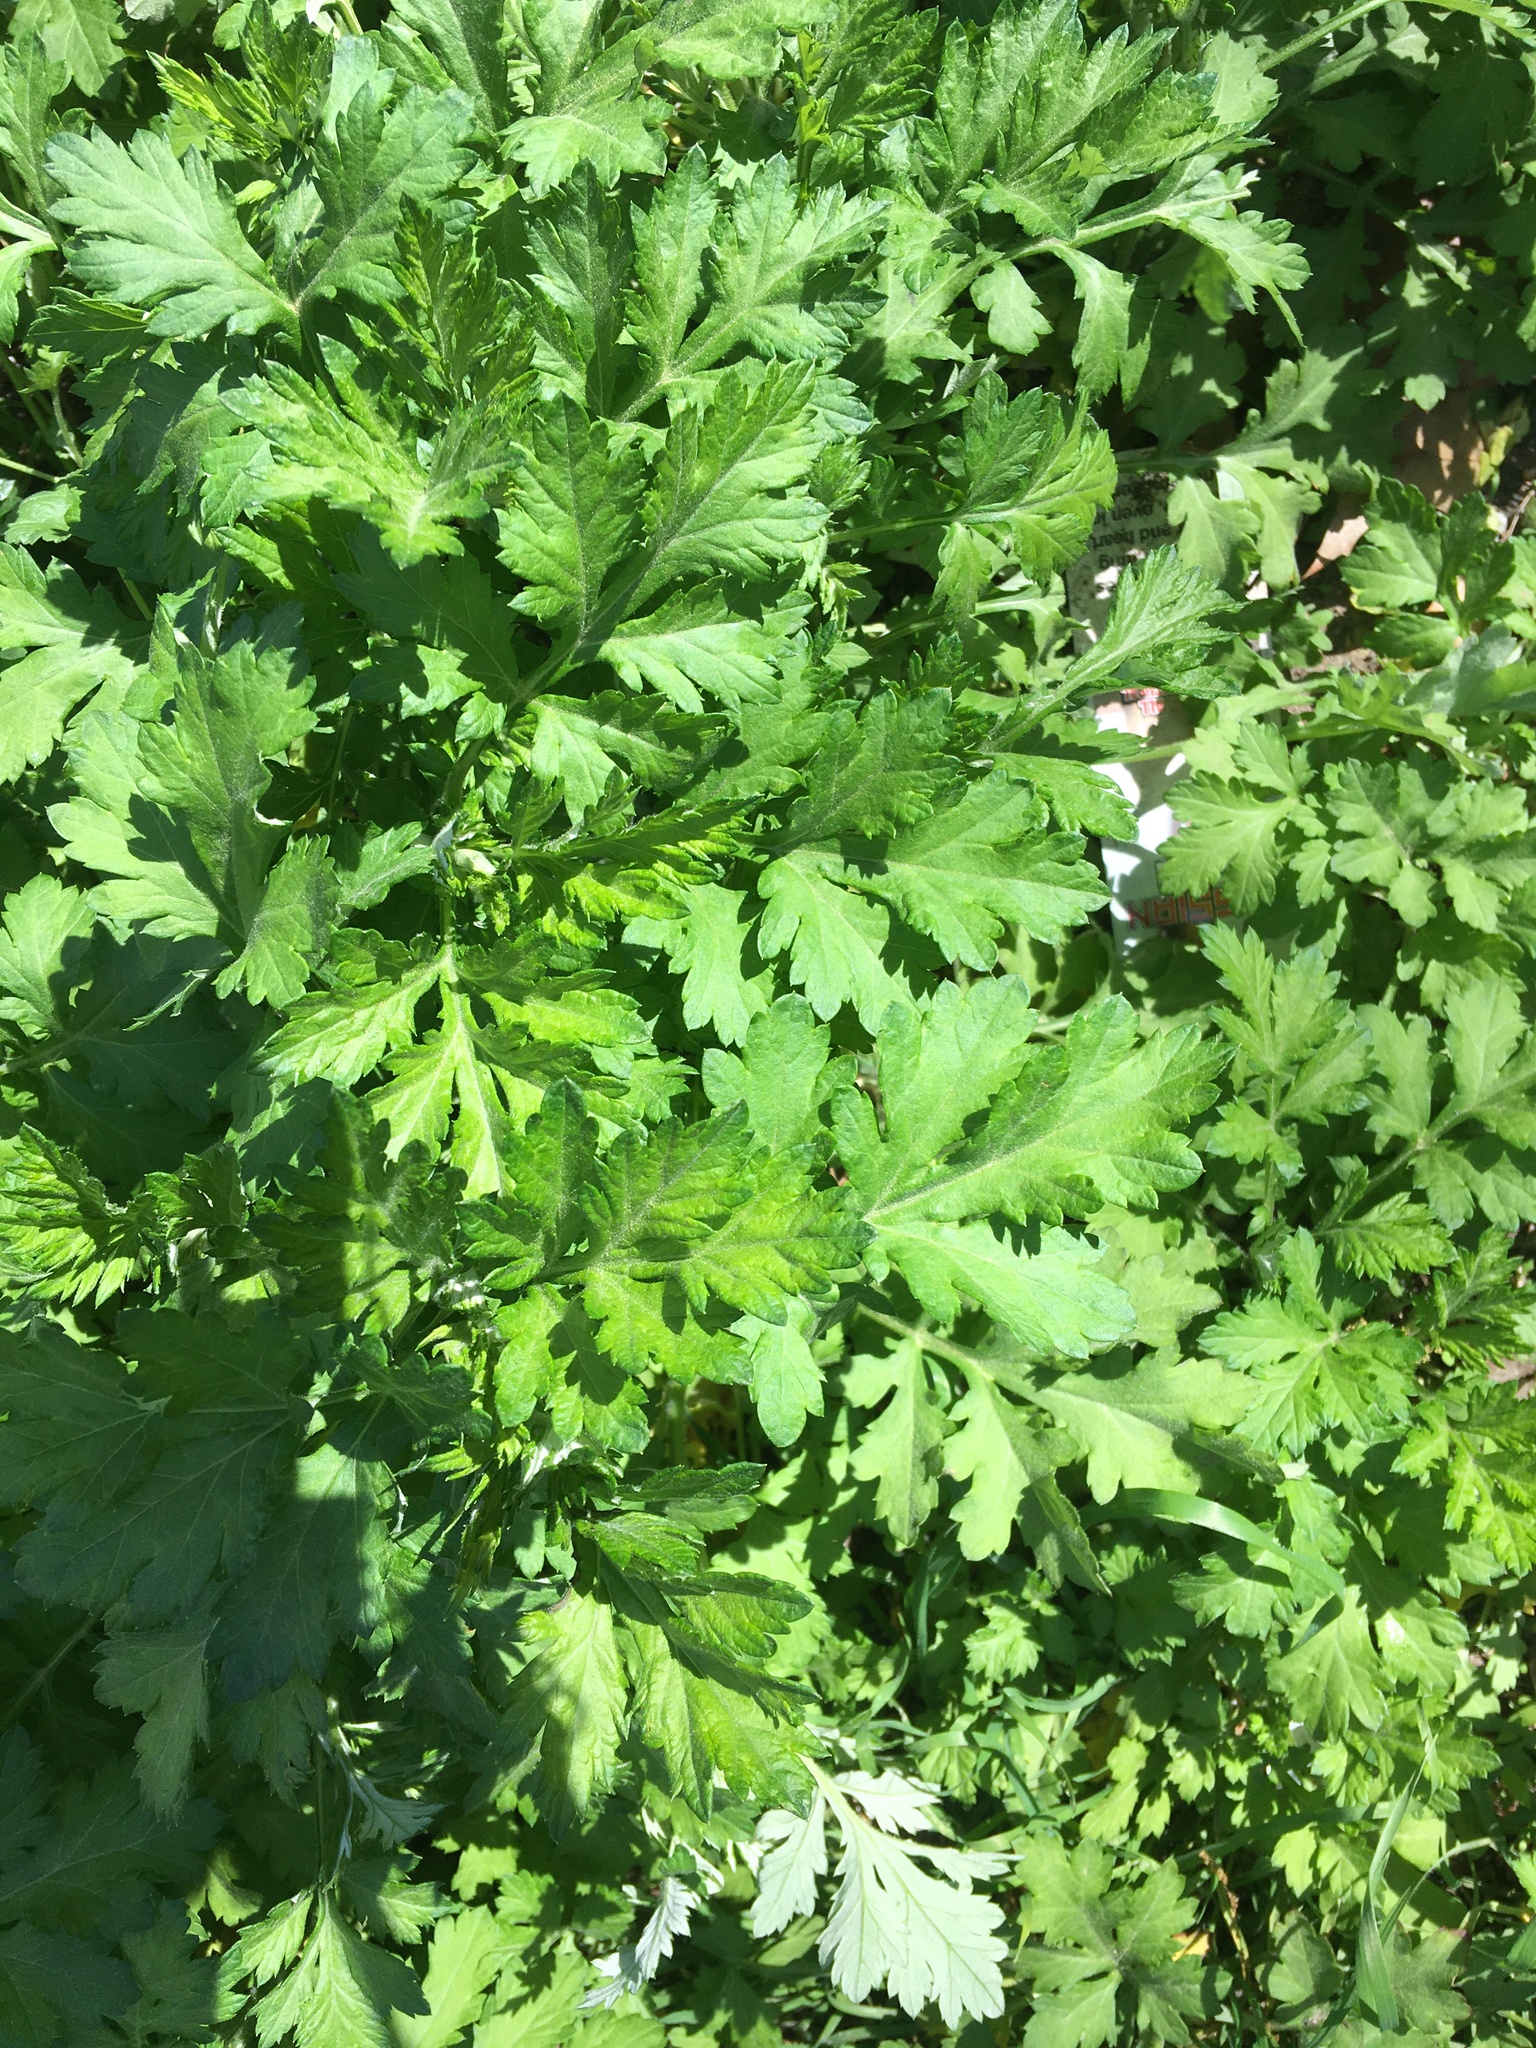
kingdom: Plantae
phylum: Tracheophyta
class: Magnoliopsida
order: Asterales
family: Asteraceae
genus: Artemisia
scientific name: Artemisia vulgaris
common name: Mugwort
